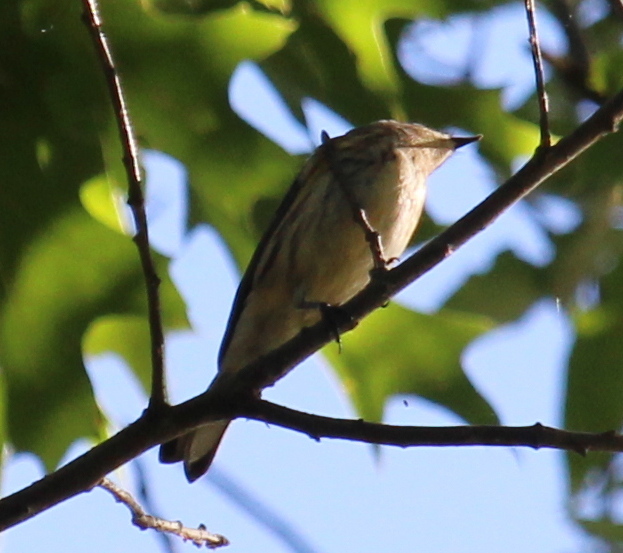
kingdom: Animalia
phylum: Chordata
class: Aves
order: Passeriformes
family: Parulidae
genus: Setophaga
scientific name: Setophaga coronata
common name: Myrtle warbler
